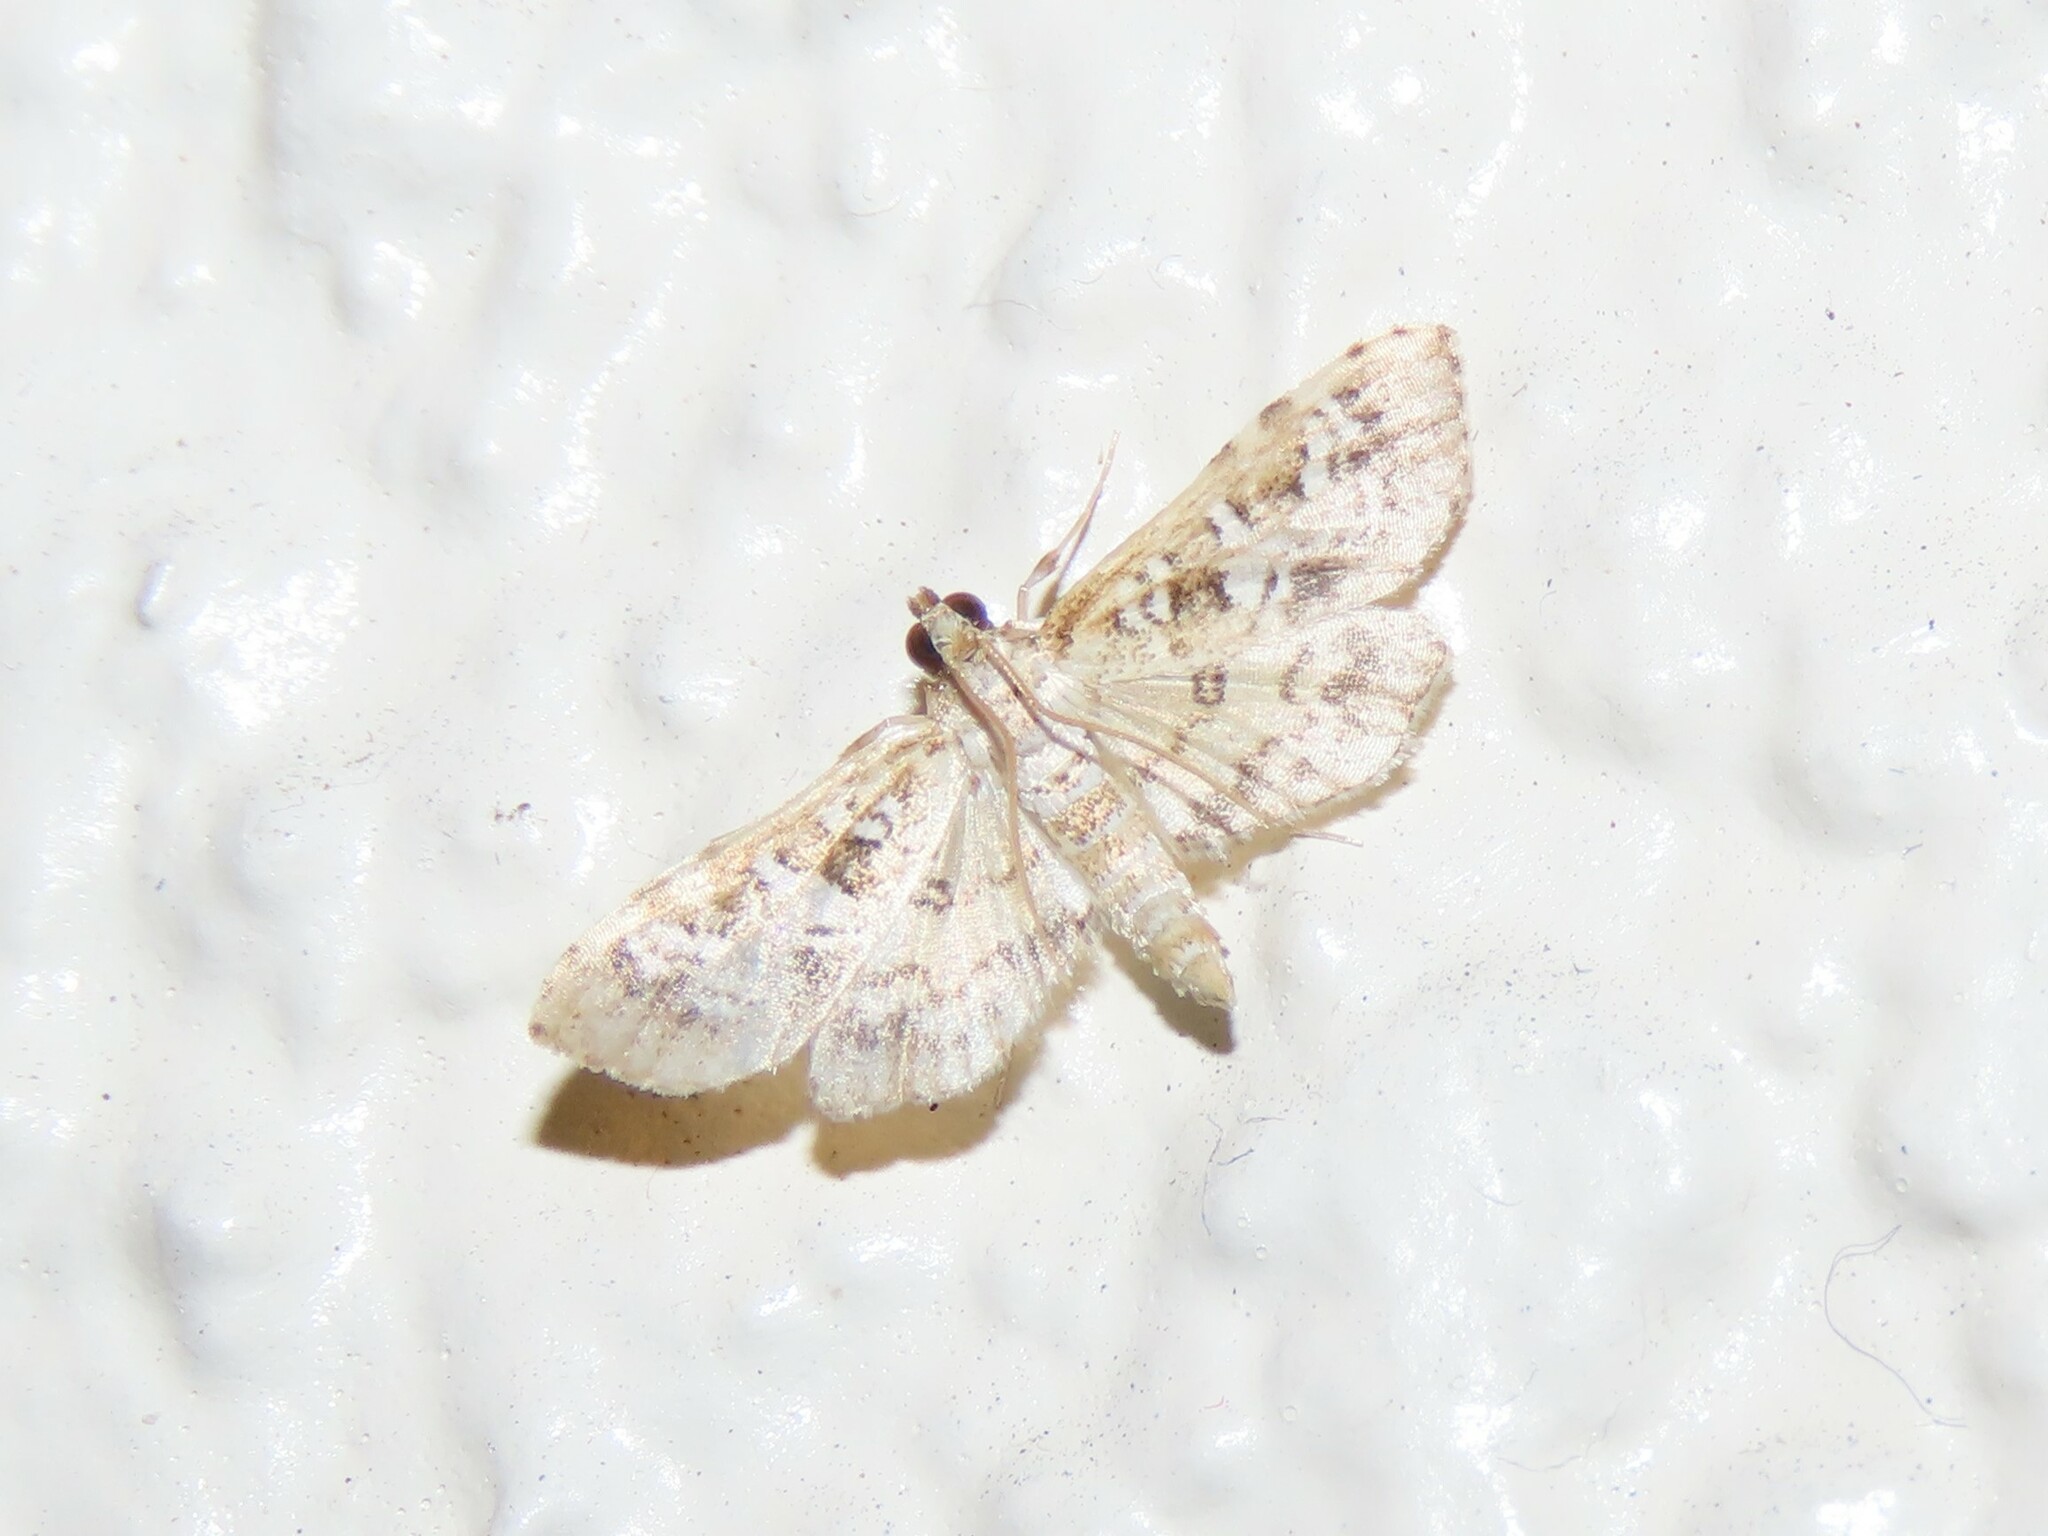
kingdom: Animalia
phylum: Arthropoda
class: Insecta
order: Lepidoptera
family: Crambidae
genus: Samea
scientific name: Samea multiplicalis
